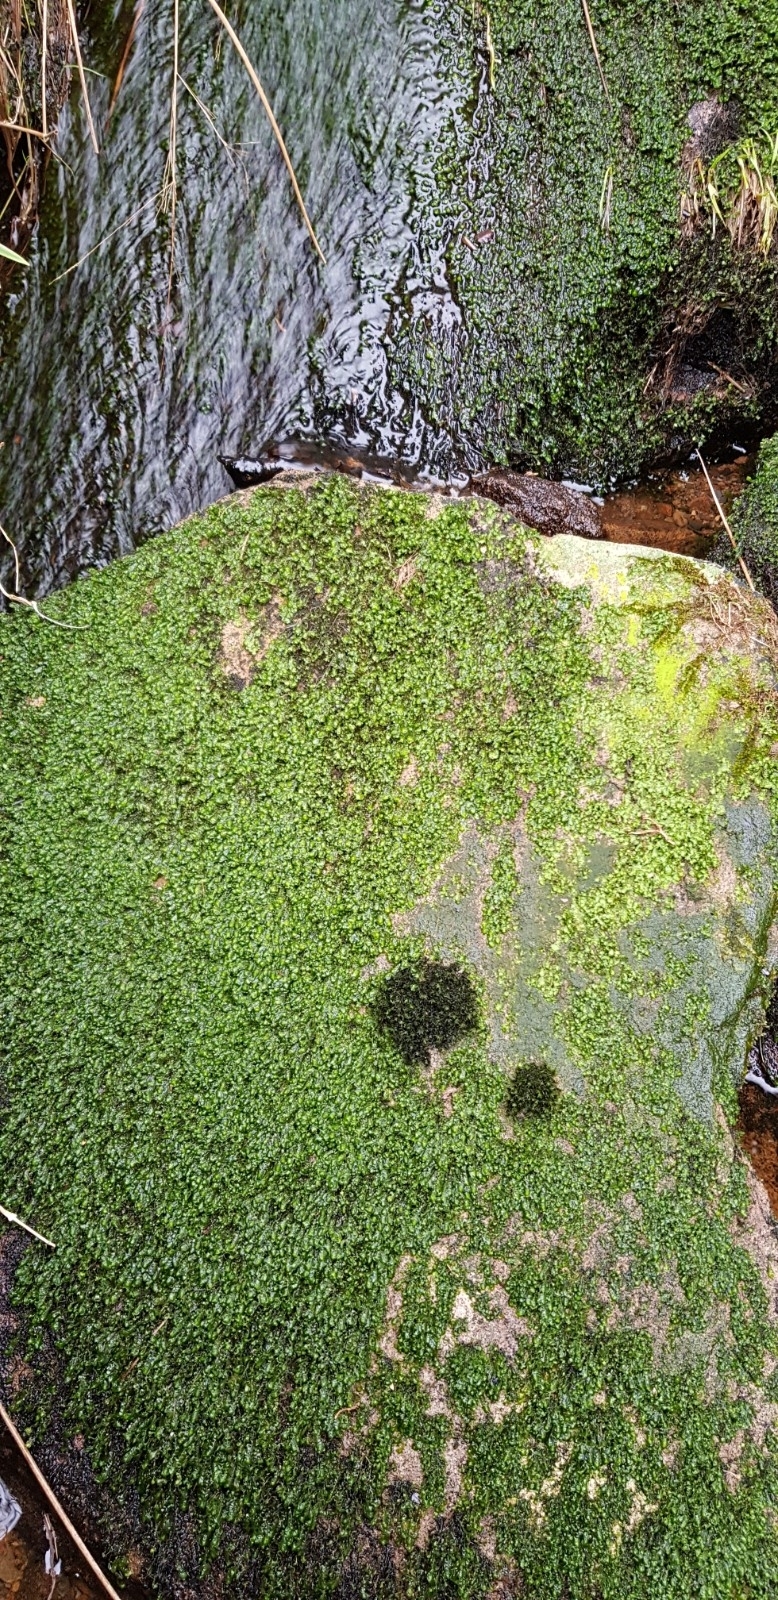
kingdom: Plantae
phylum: Bryophyta
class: Bryopsida
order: Grimmiales
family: Grimmiaceae
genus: Codriophorus
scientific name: Codriophorus acicularis
